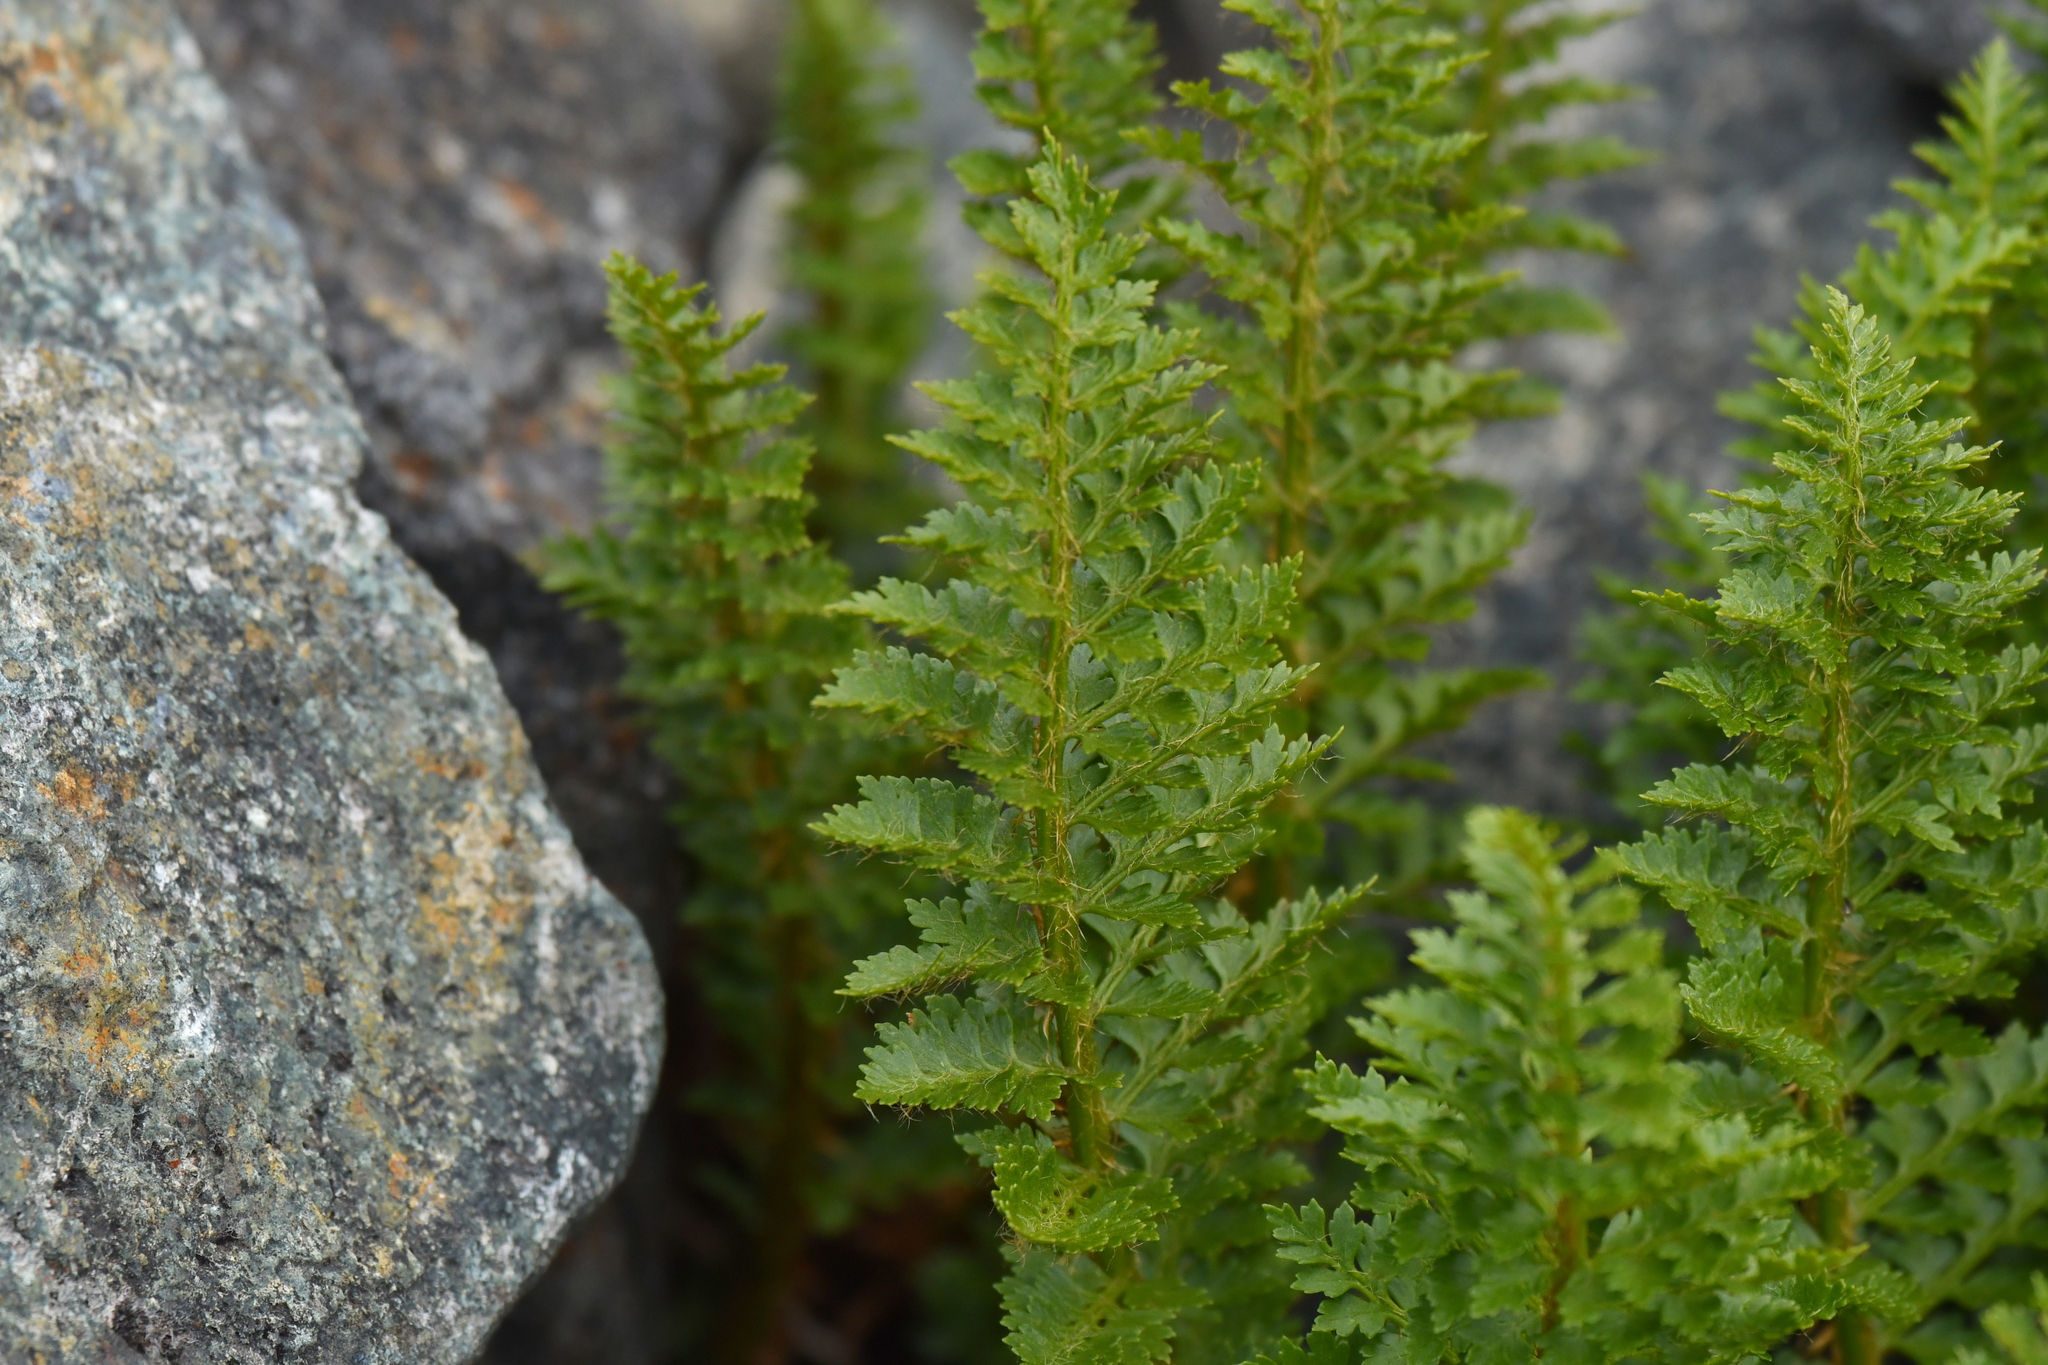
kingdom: Plantae
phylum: Tracheophyta
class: Polypodiopsida
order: Polypodiales
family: Dryopteridaceae
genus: Polystichum
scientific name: Polystichum cystostegia
